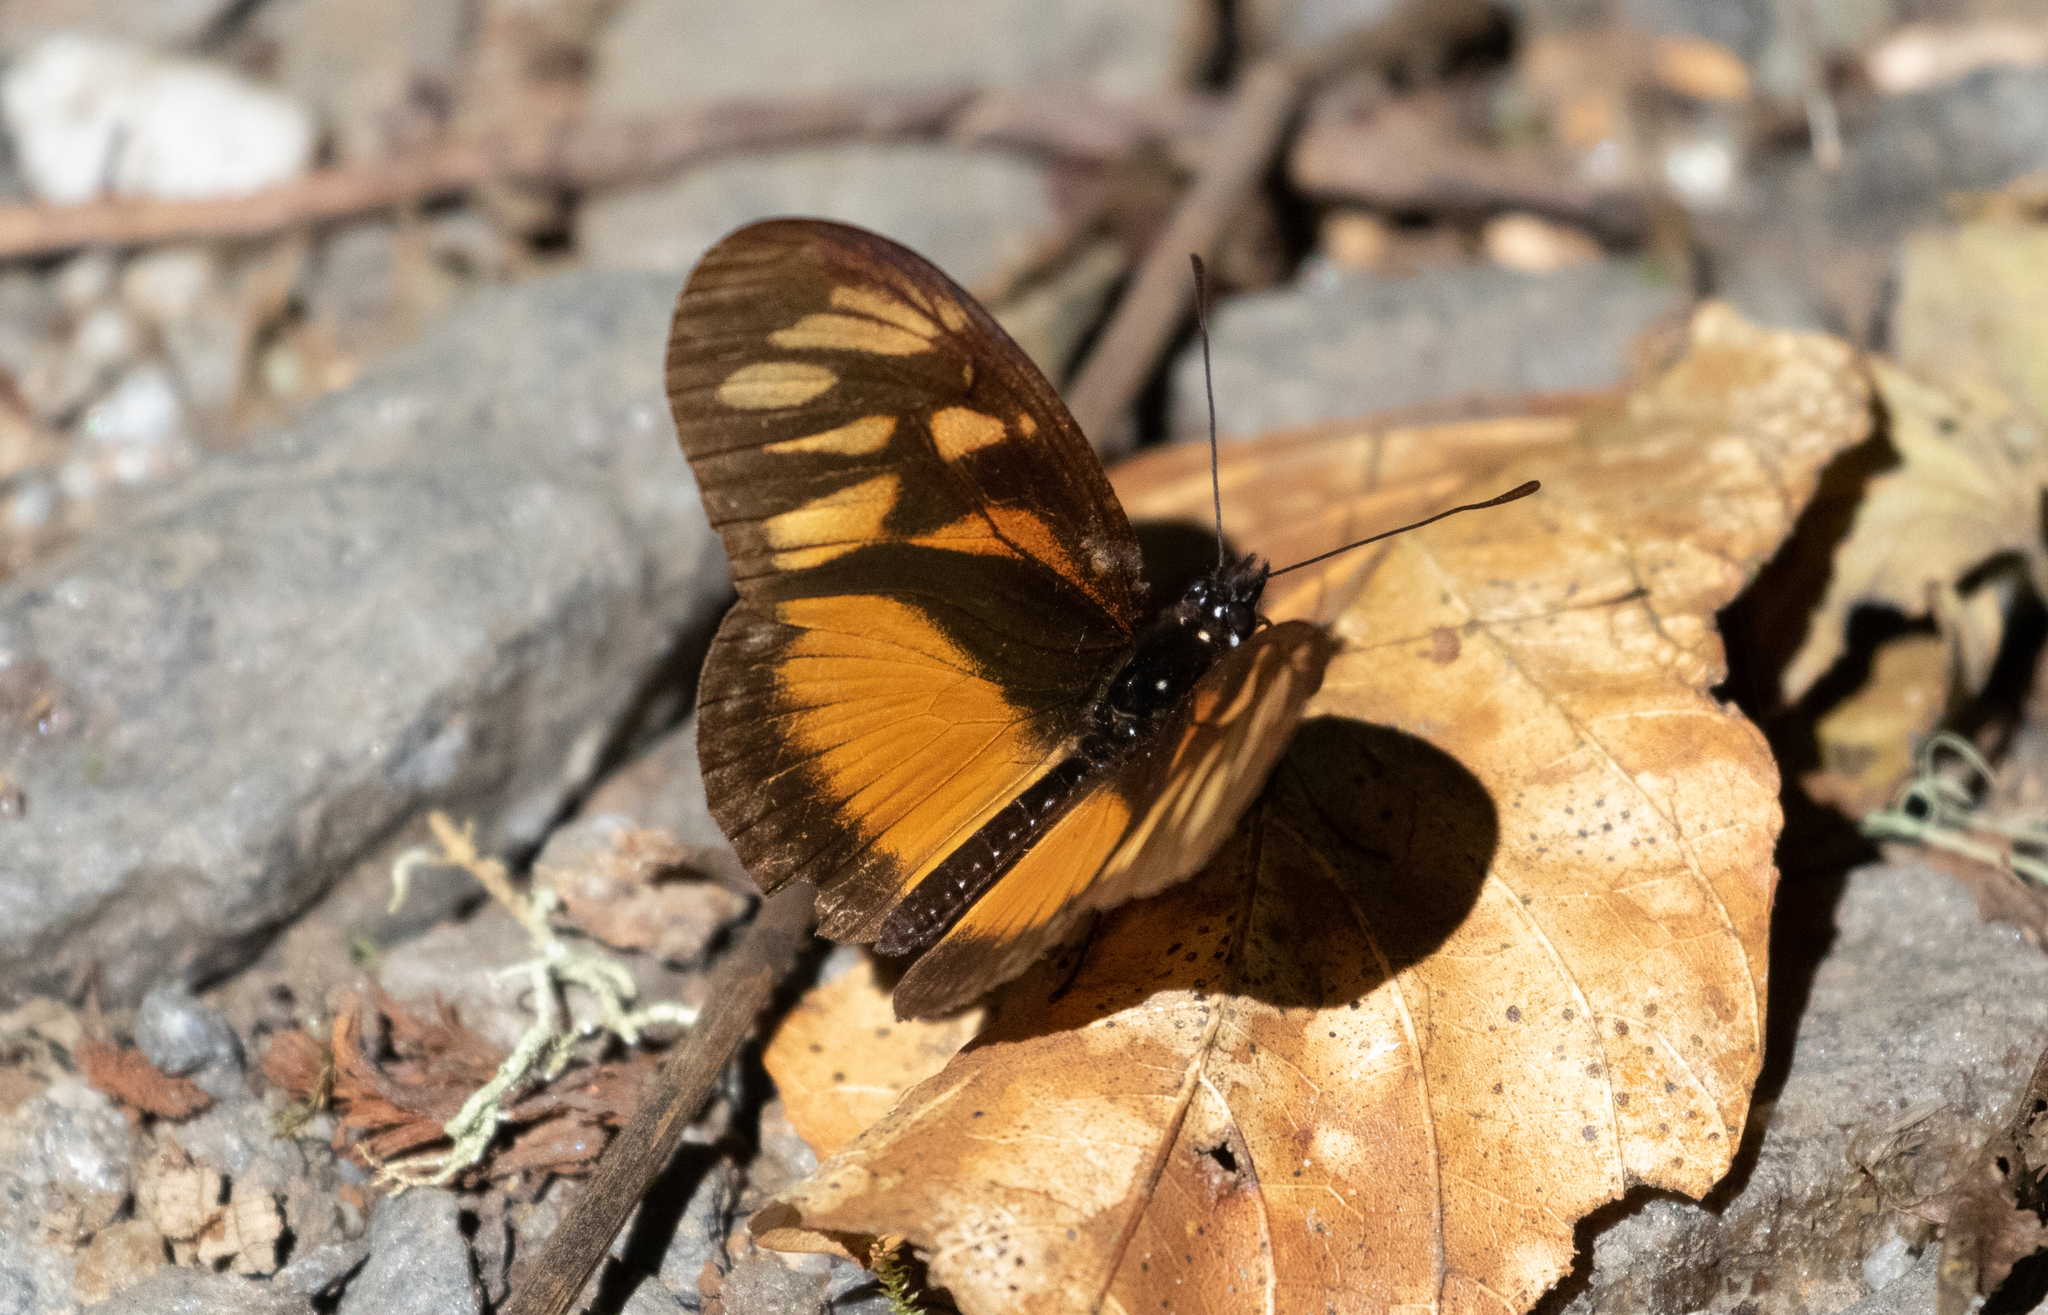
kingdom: Animalia
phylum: Arthropoda
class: Insecta
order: Lepidoptera
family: Nymphalidae
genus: Eueides
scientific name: Eueides procula
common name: Nonpassionate heliconian
